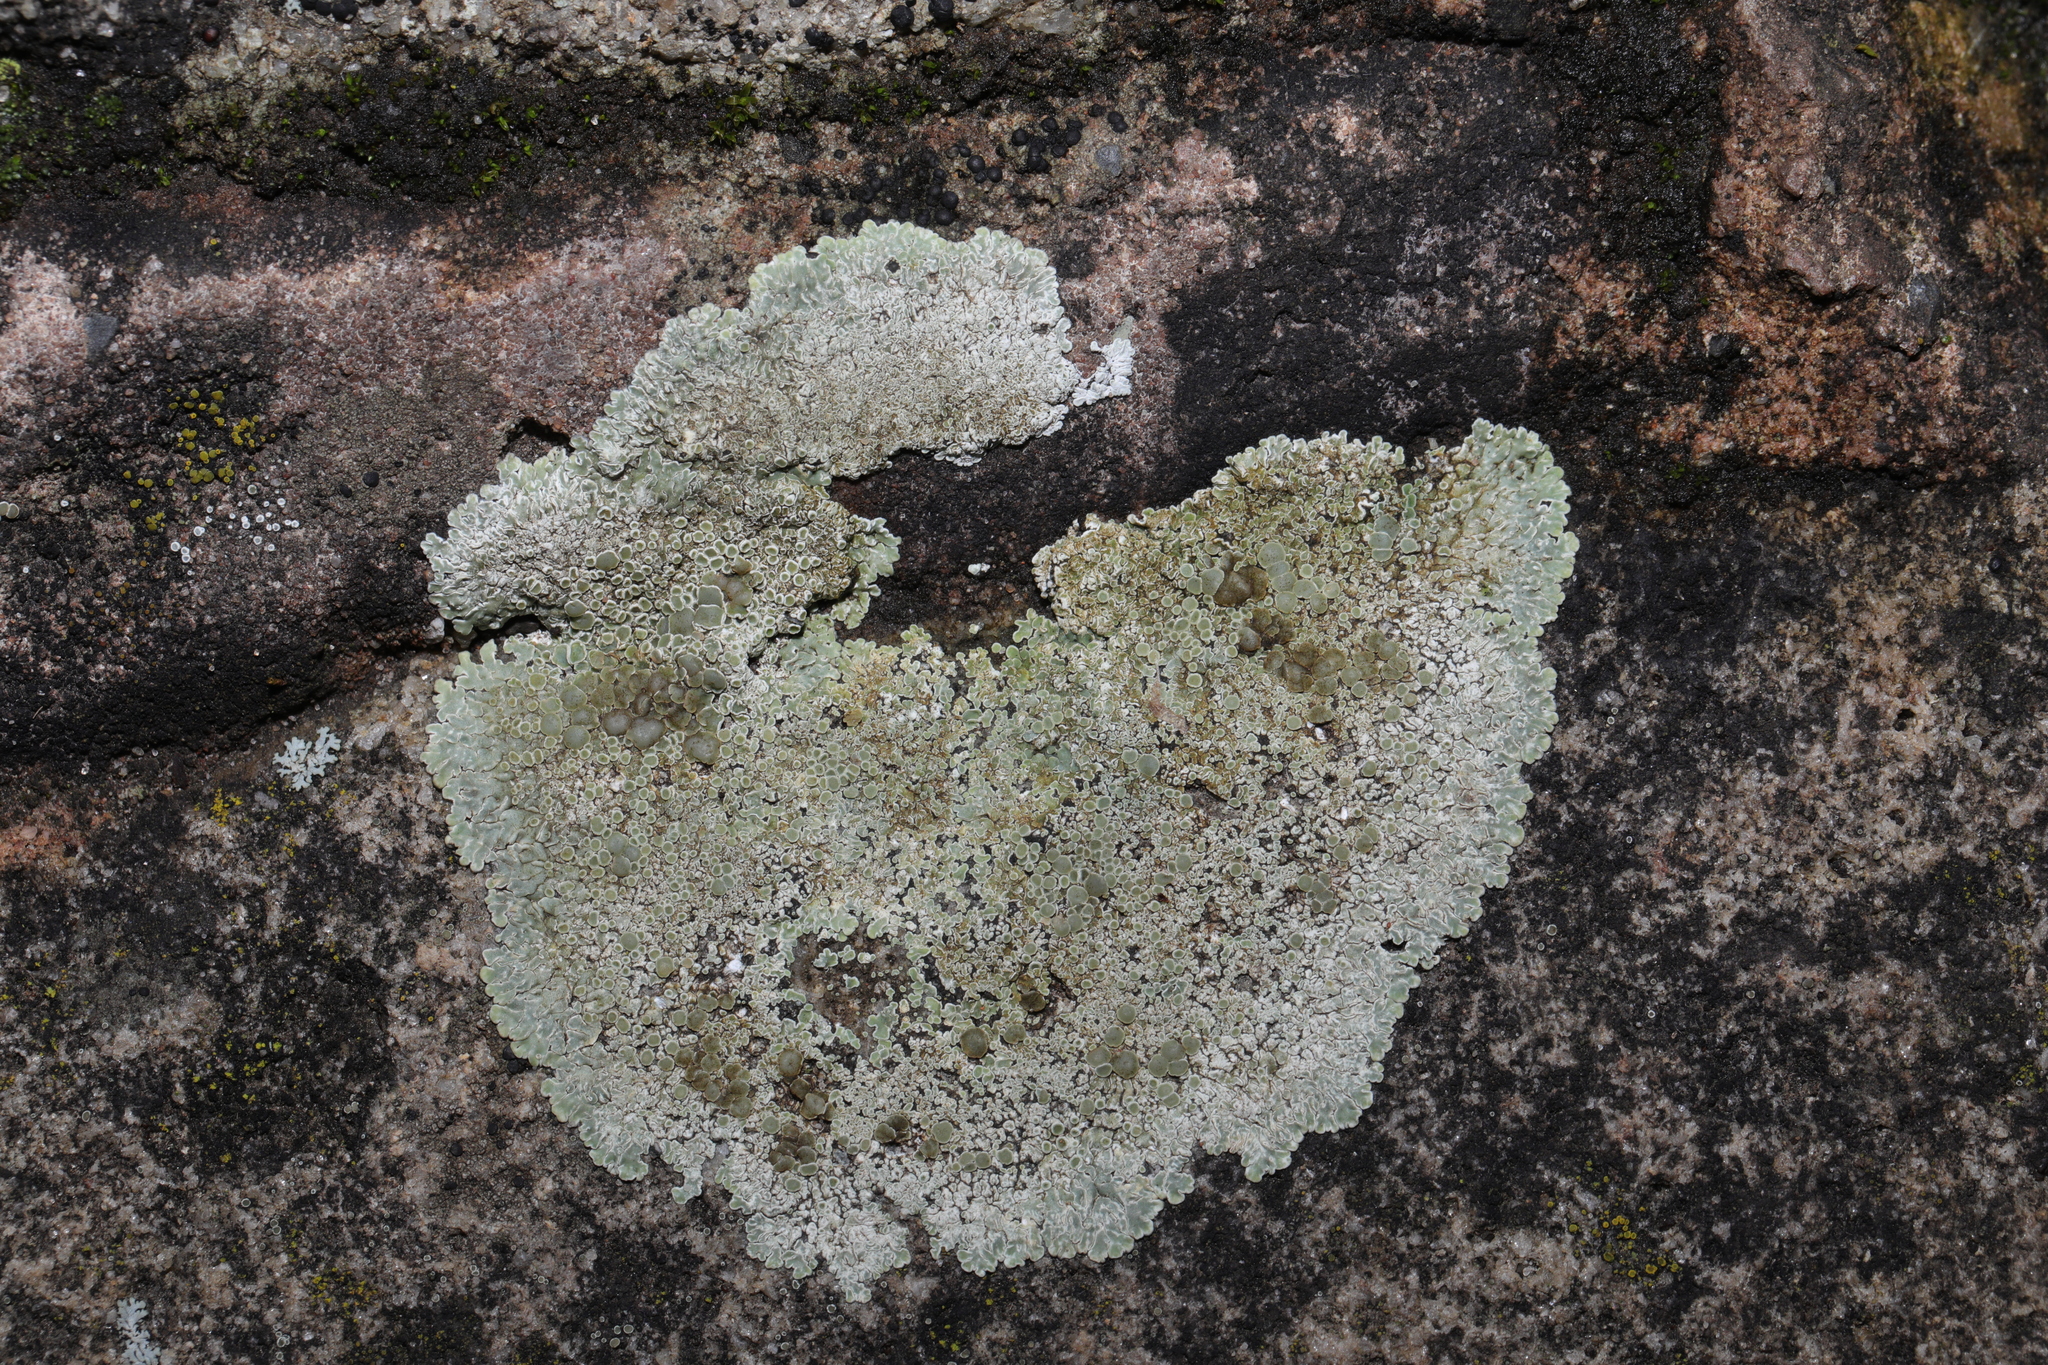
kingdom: Fungi
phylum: Ascomycota
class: Lecanoromycetes
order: Lecanorales
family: Lecanoraceae
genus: Protoparmeliopsis
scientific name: Protoparmeliopsis muralis
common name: Stonewall rim lichen
